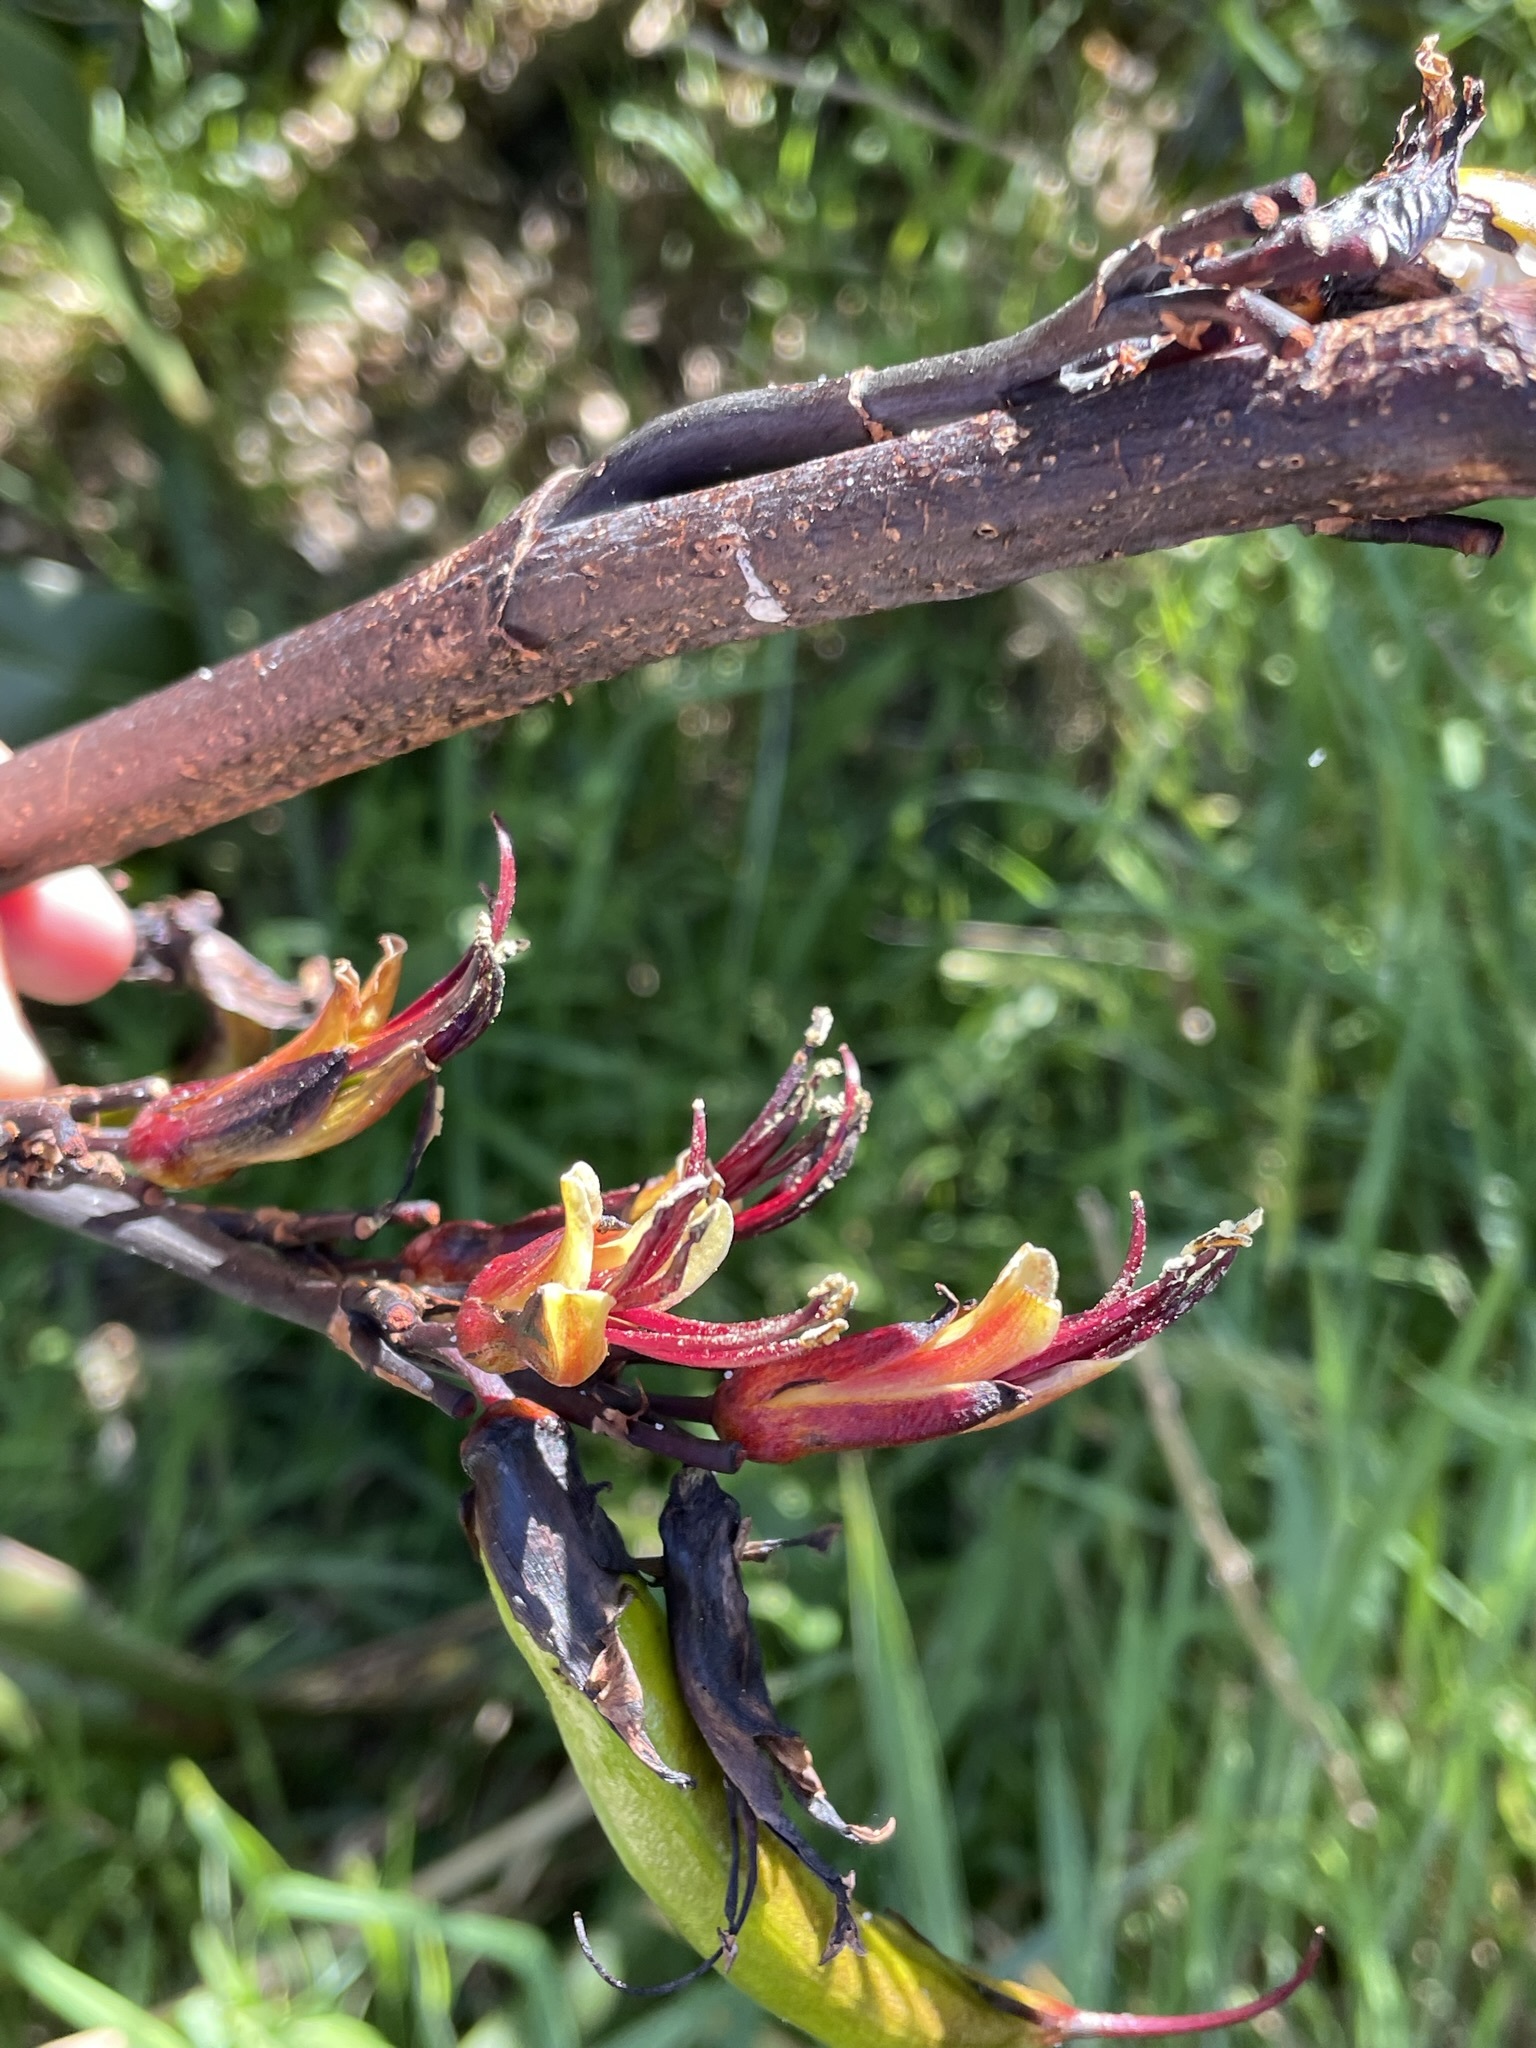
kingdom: Plantae
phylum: Tracheophyta
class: Liliopsida
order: Asparagales
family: Asphodelaceae
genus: Phormium
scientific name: Phormium colensoi
